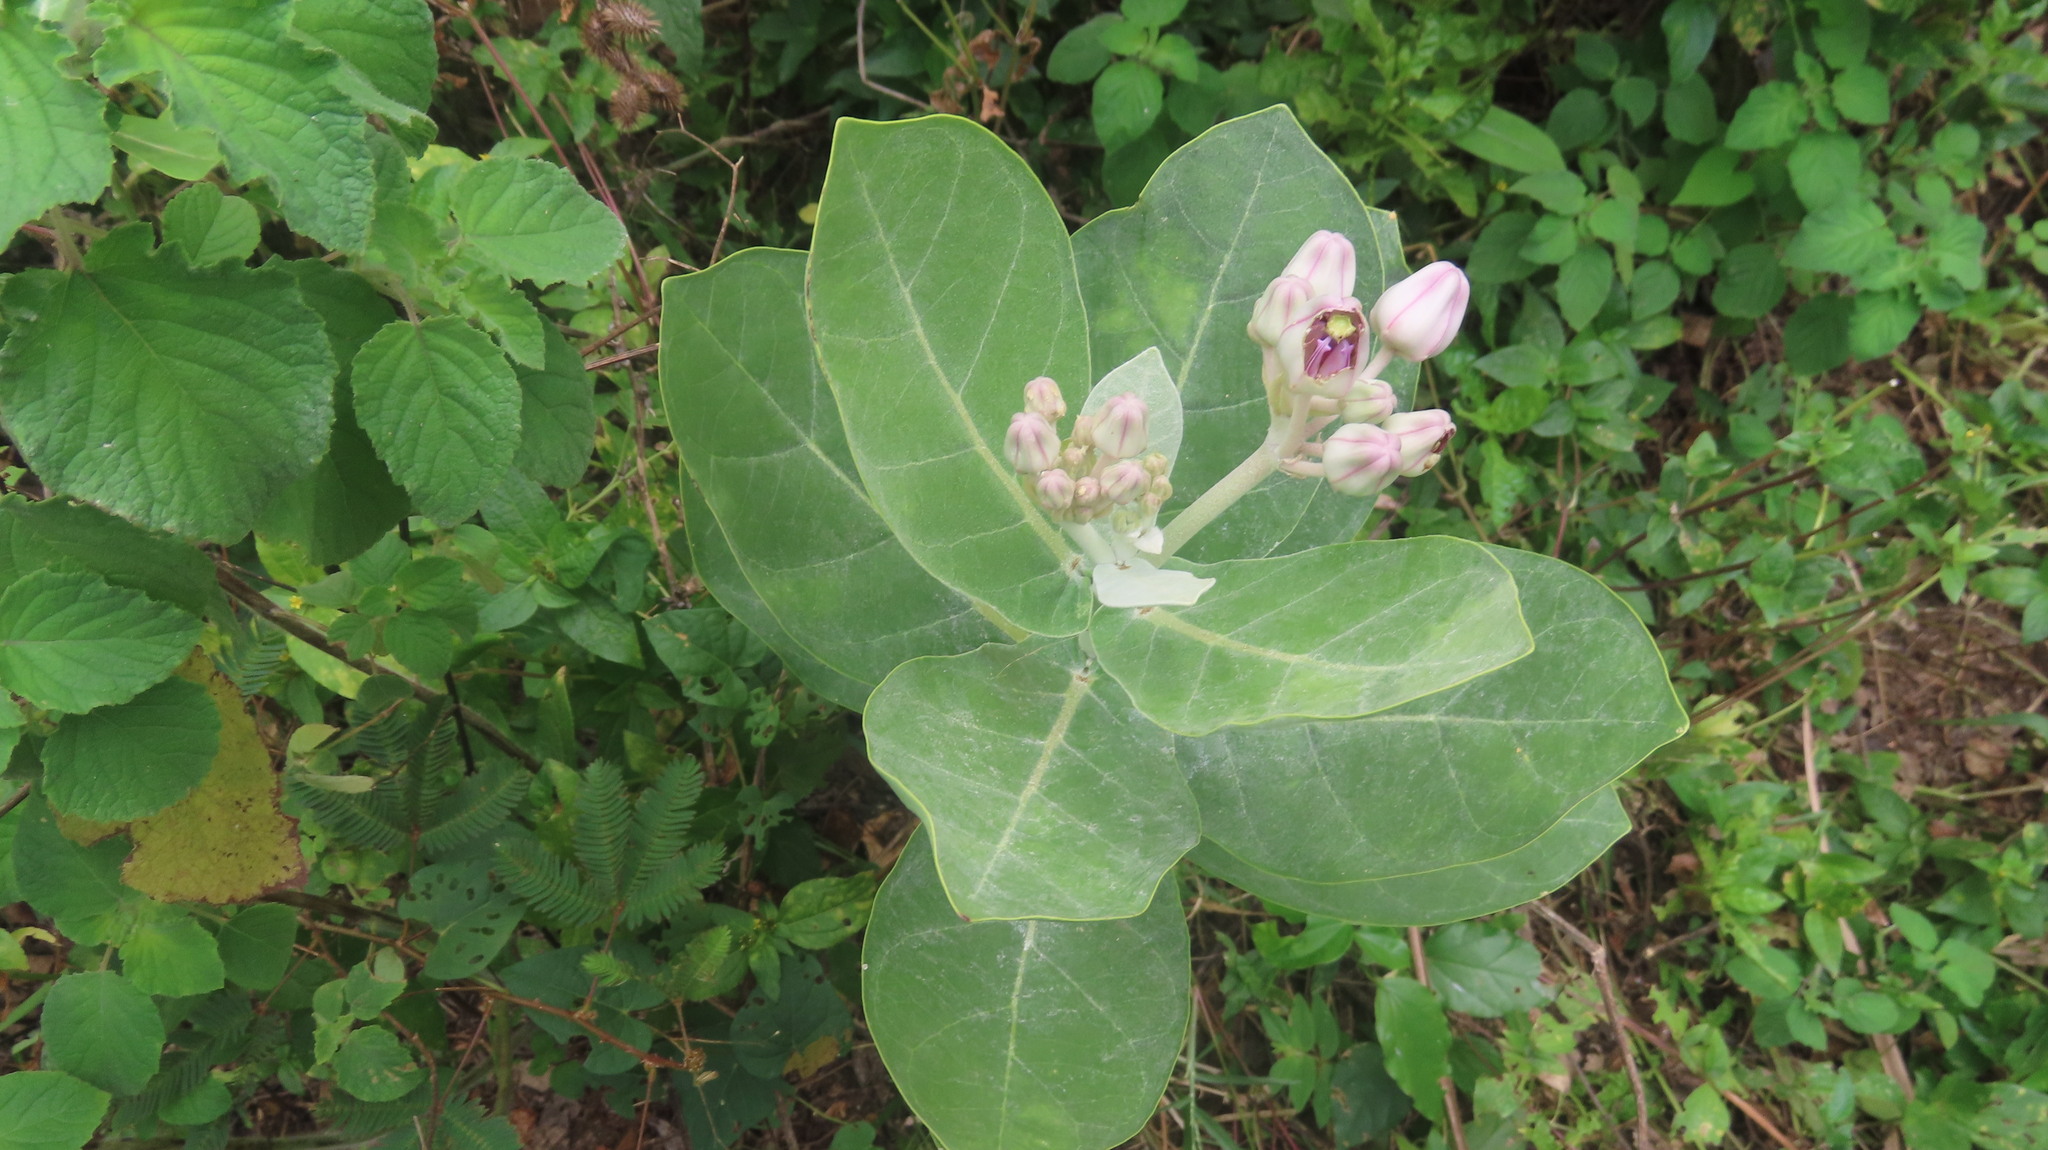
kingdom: Plantae
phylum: Tracheophyta
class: Magnoliopsida
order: Gentianales
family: Apocynaceae
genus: Calotropis
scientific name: Calotropis gigantea
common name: Crown flower
